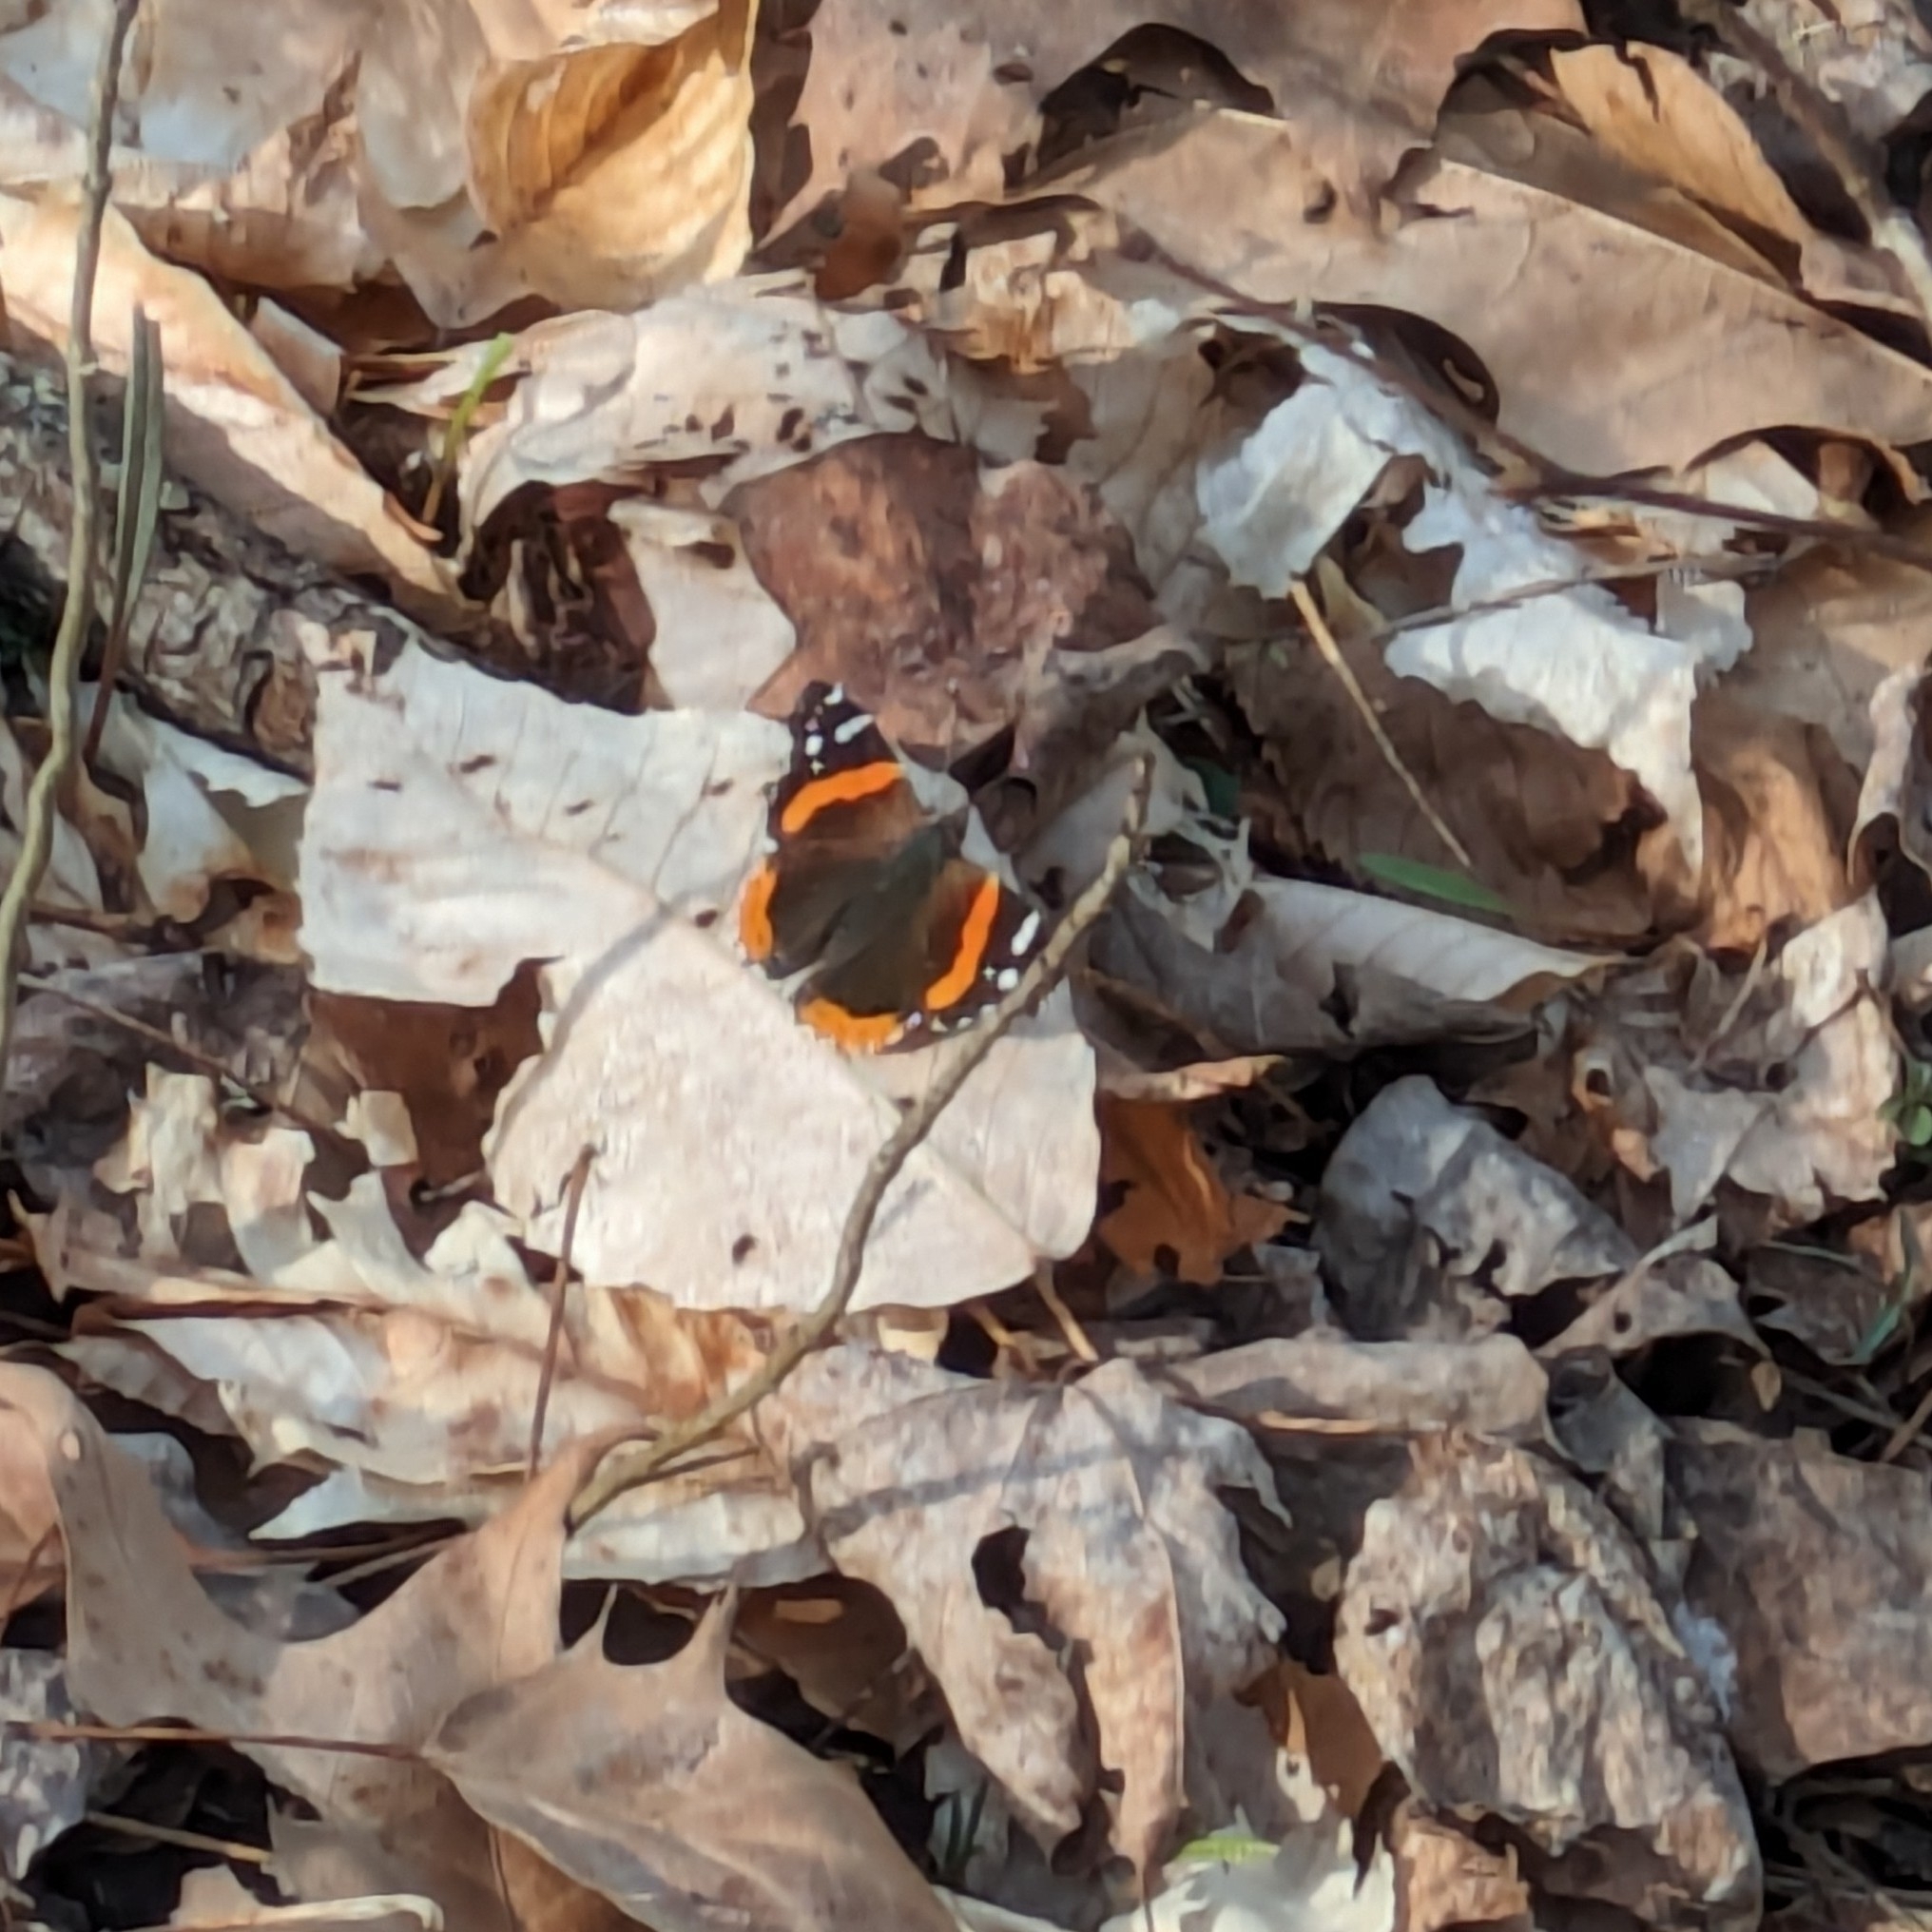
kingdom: Animalia
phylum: Arthropoda
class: Insecta
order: Lepidoptera
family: Nymphalidae
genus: Vanessa
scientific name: Vanessa atalanta
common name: Red admiral
